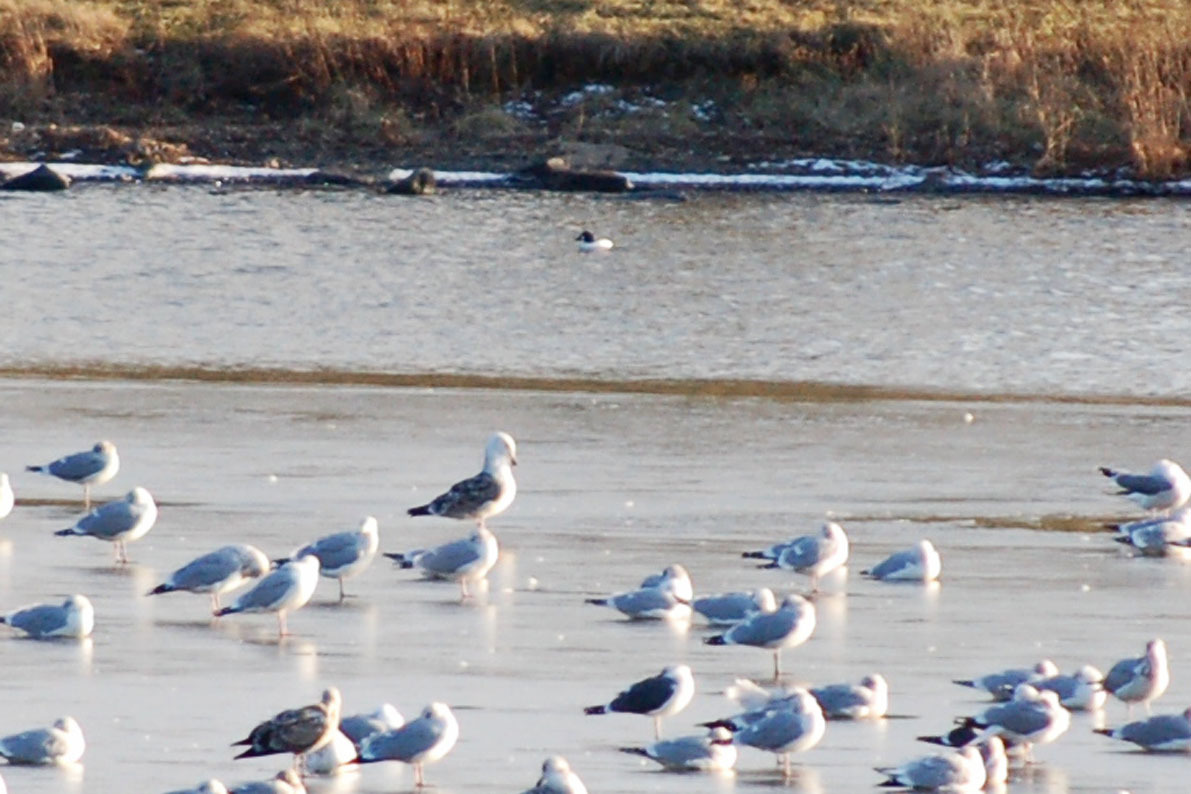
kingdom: Animalia
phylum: Chordata
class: Aves
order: Anseriformes
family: Anatidae
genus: Bucephala
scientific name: Bucephala clangula
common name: Common goldeneye
